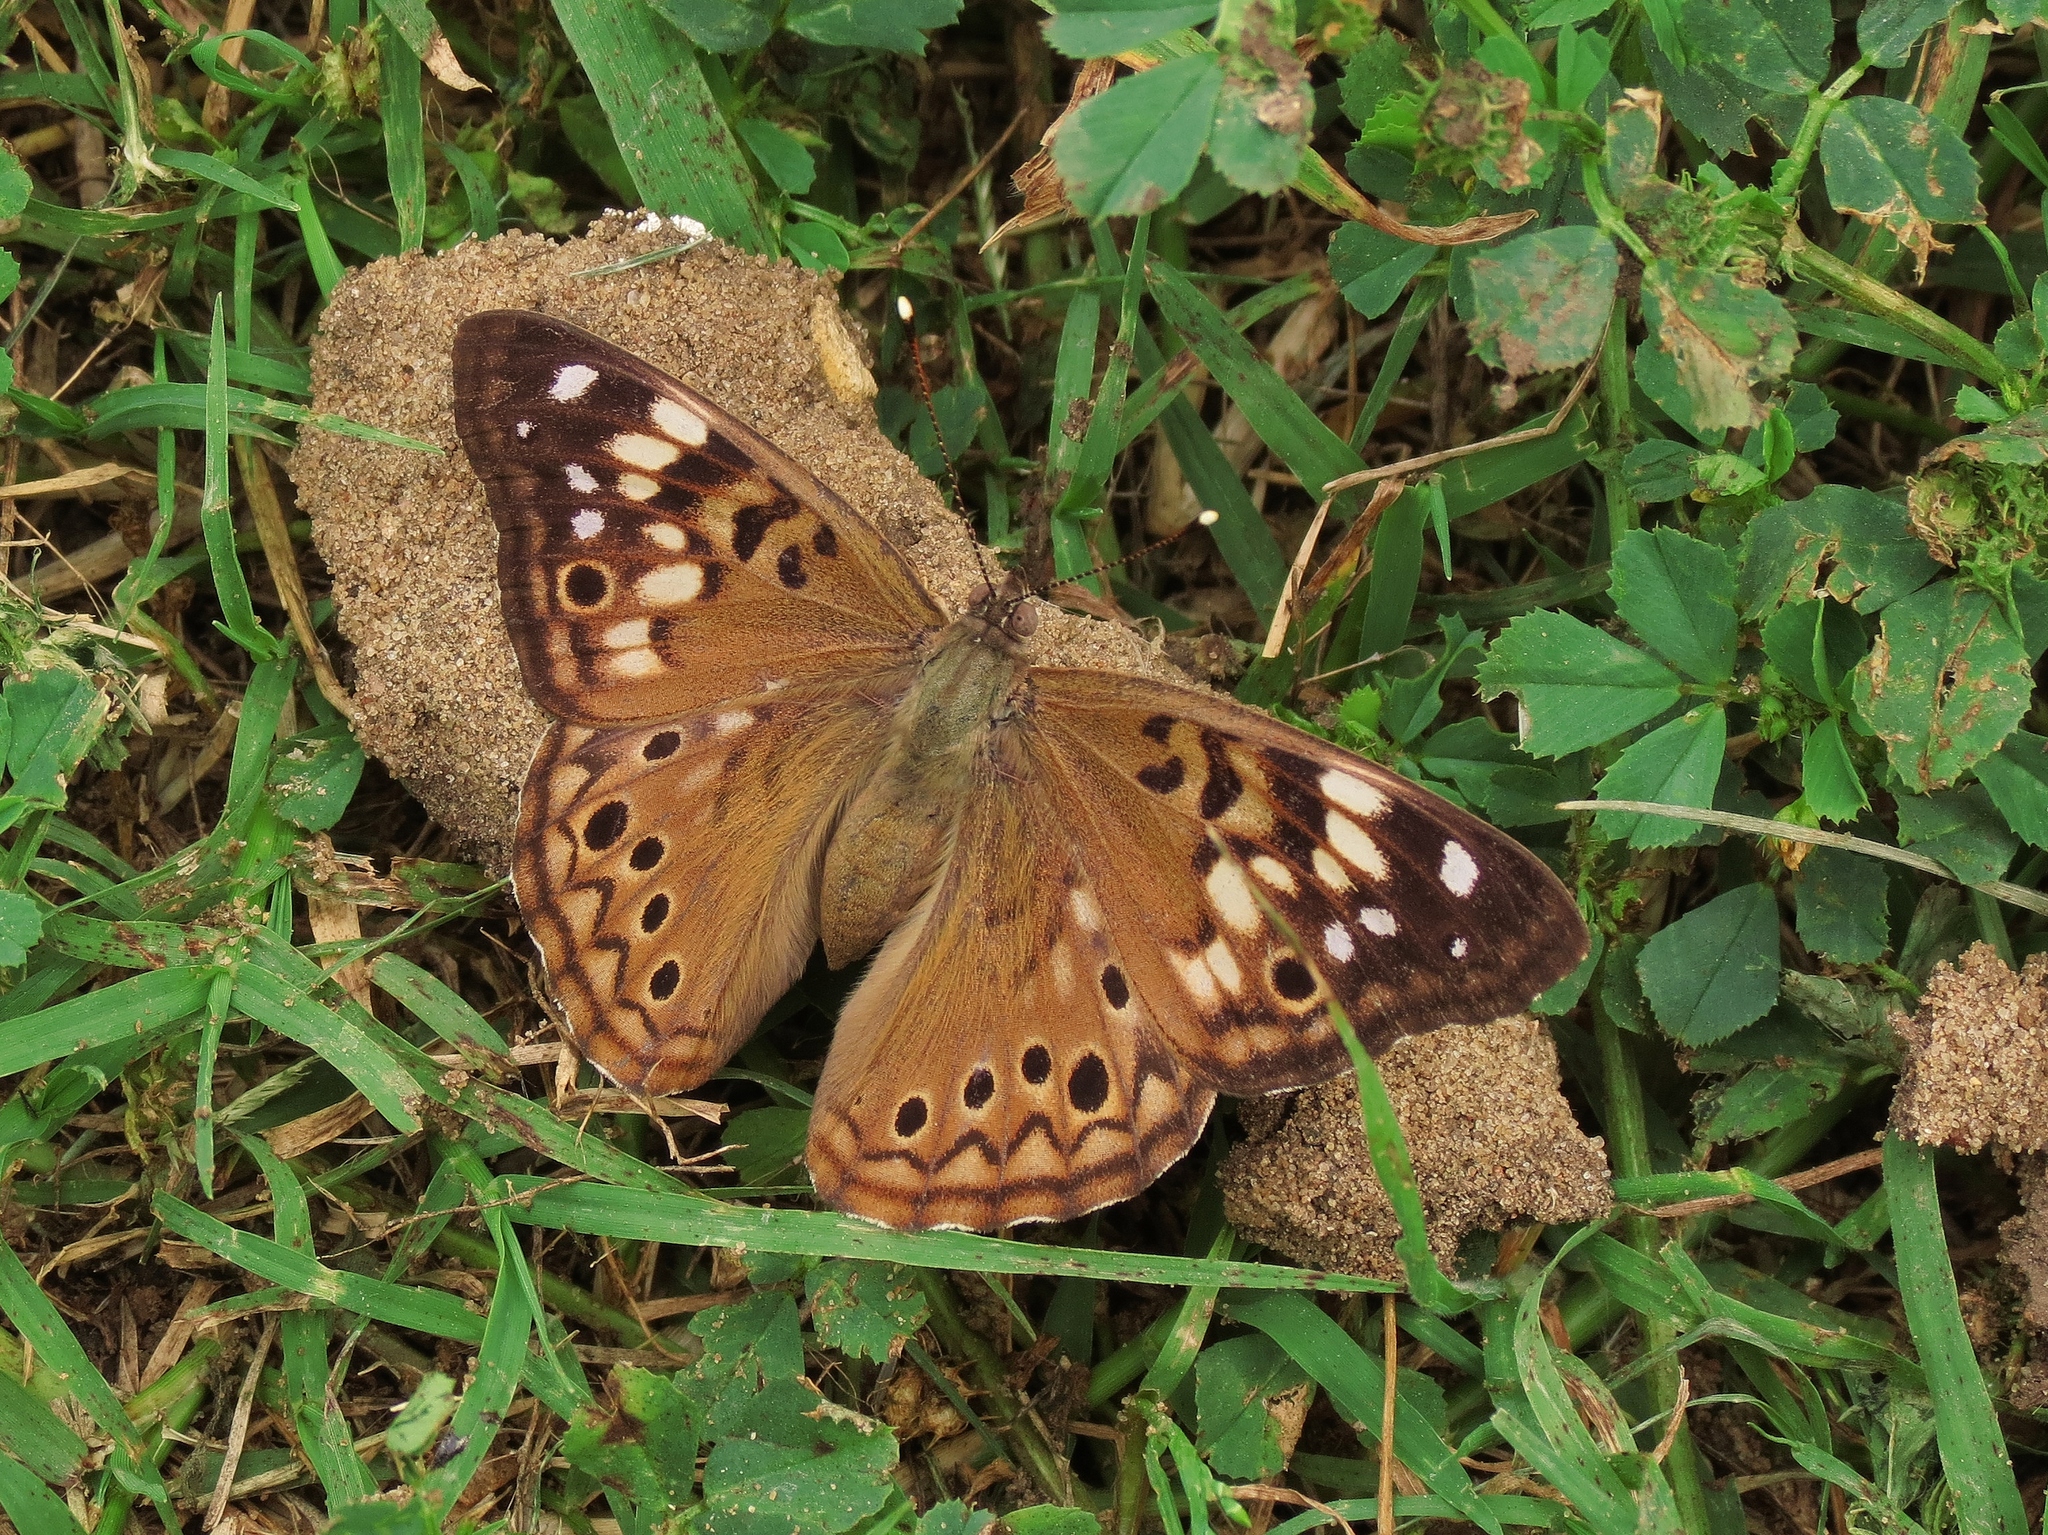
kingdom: Animalia
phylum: Arthropoda
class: Insecta
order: Lepidoptera
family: Nymphalidae
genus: Asterocampa
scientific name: Asterocampa celtis
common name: Hackberry emperor
